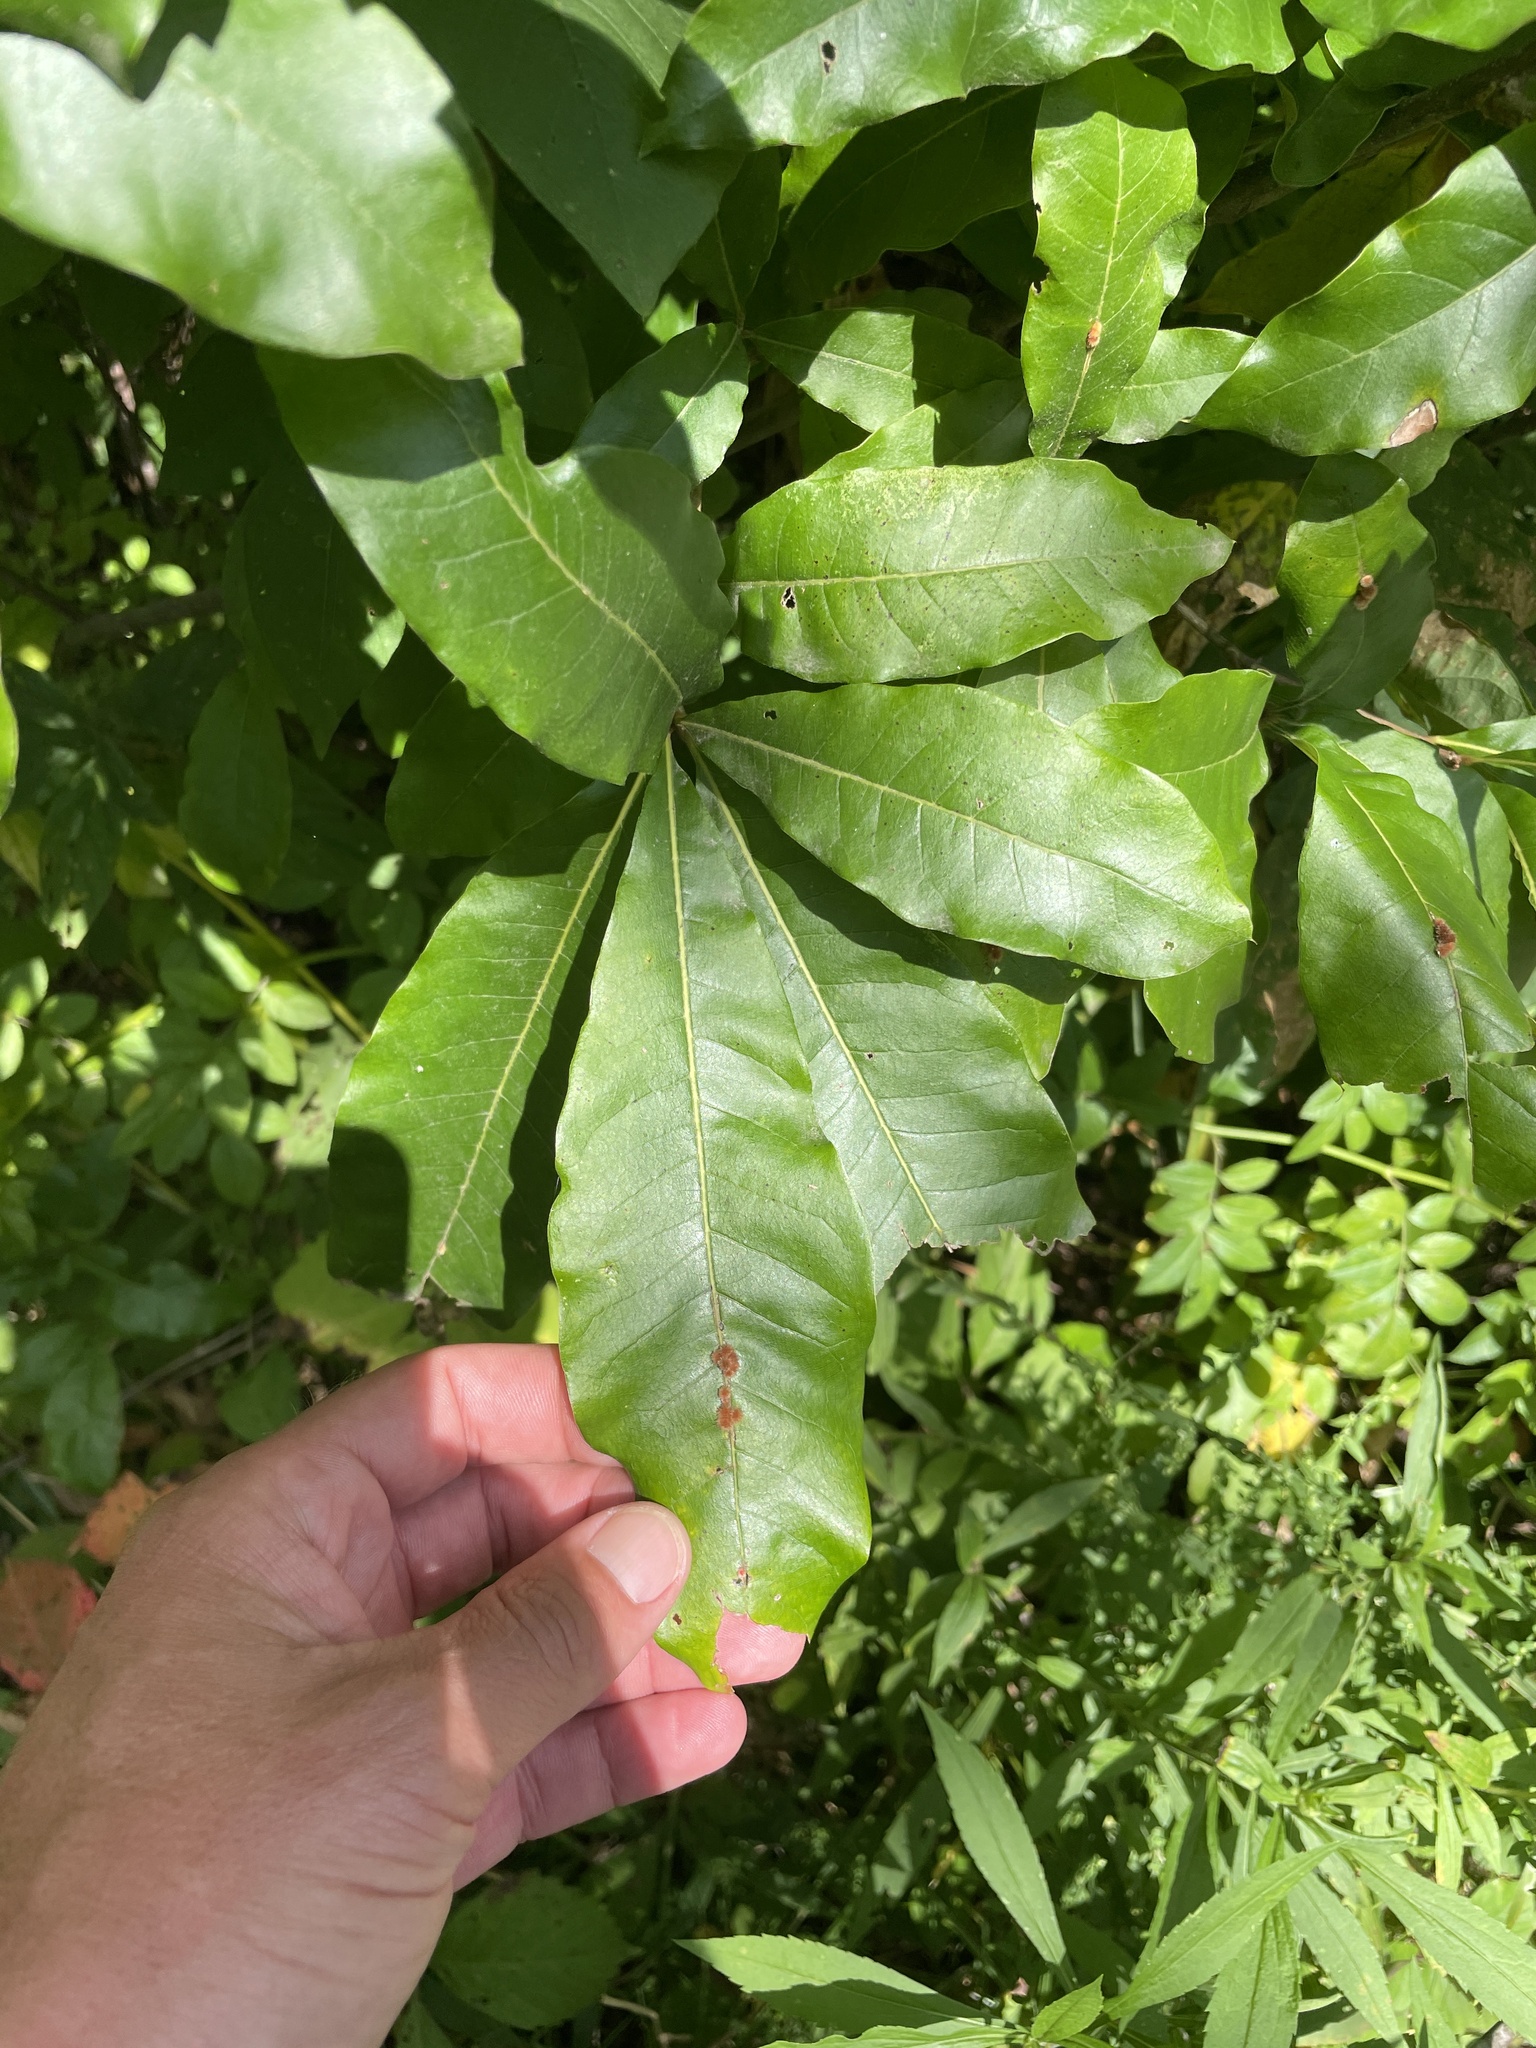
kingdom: Plantae
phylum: Tracheophyta
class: Magnoliopsida
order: Fagales
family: Fagaceae
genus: Quercus
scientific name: Quercus imbricaria
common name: Shingle oak
